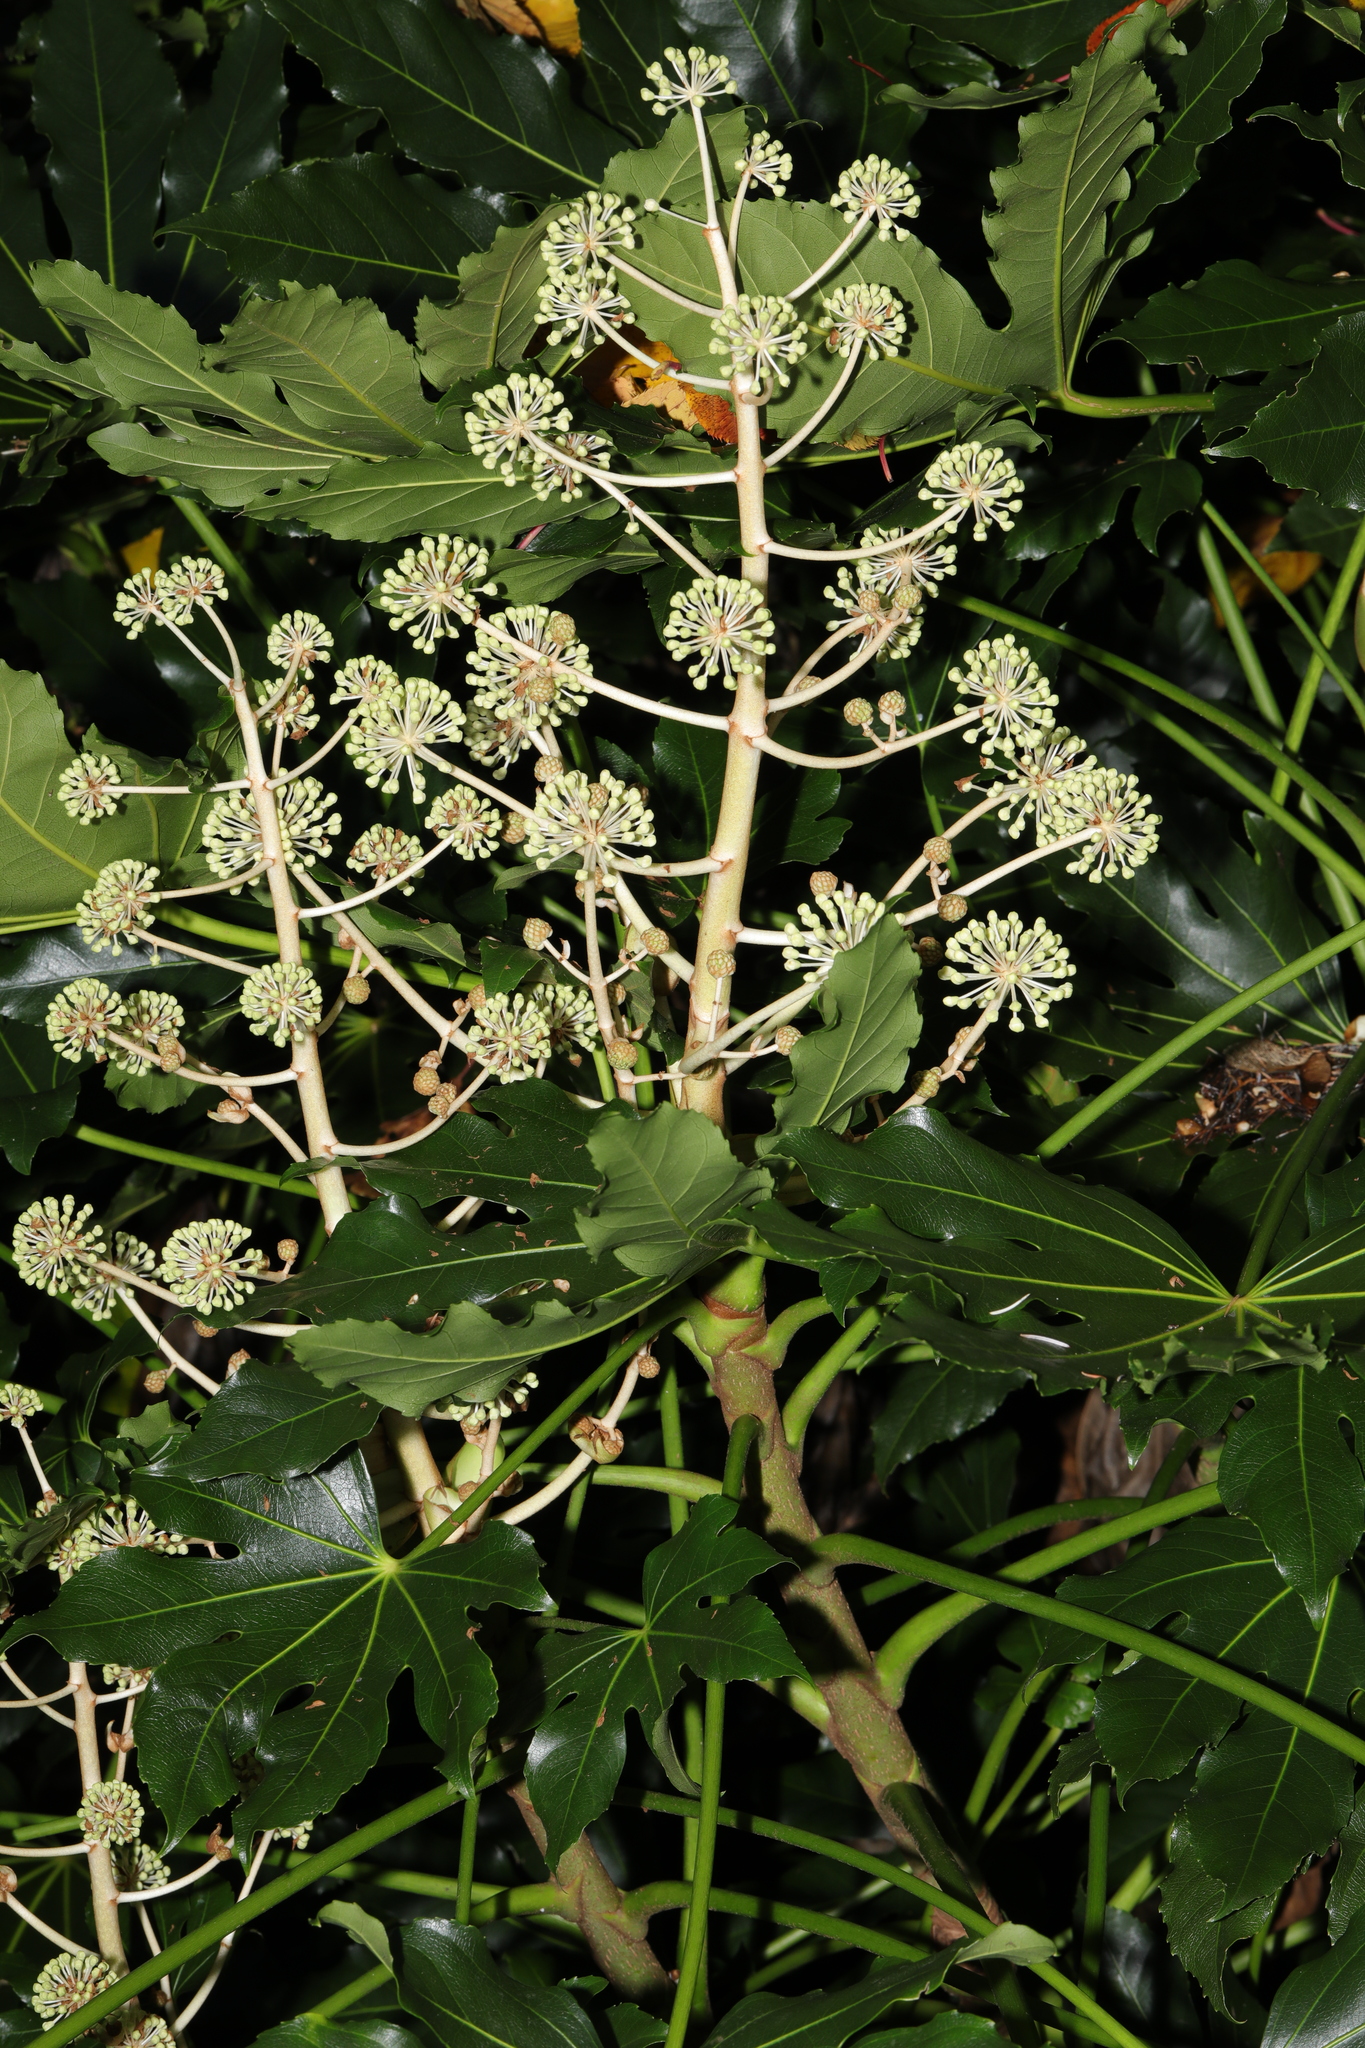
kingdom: Plantae
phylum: Tracheophyta
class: Magnoliopsida
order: Apiales
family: Araliaceae
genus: Fatsia
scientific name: Fatsia japonica
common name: Fatsia
